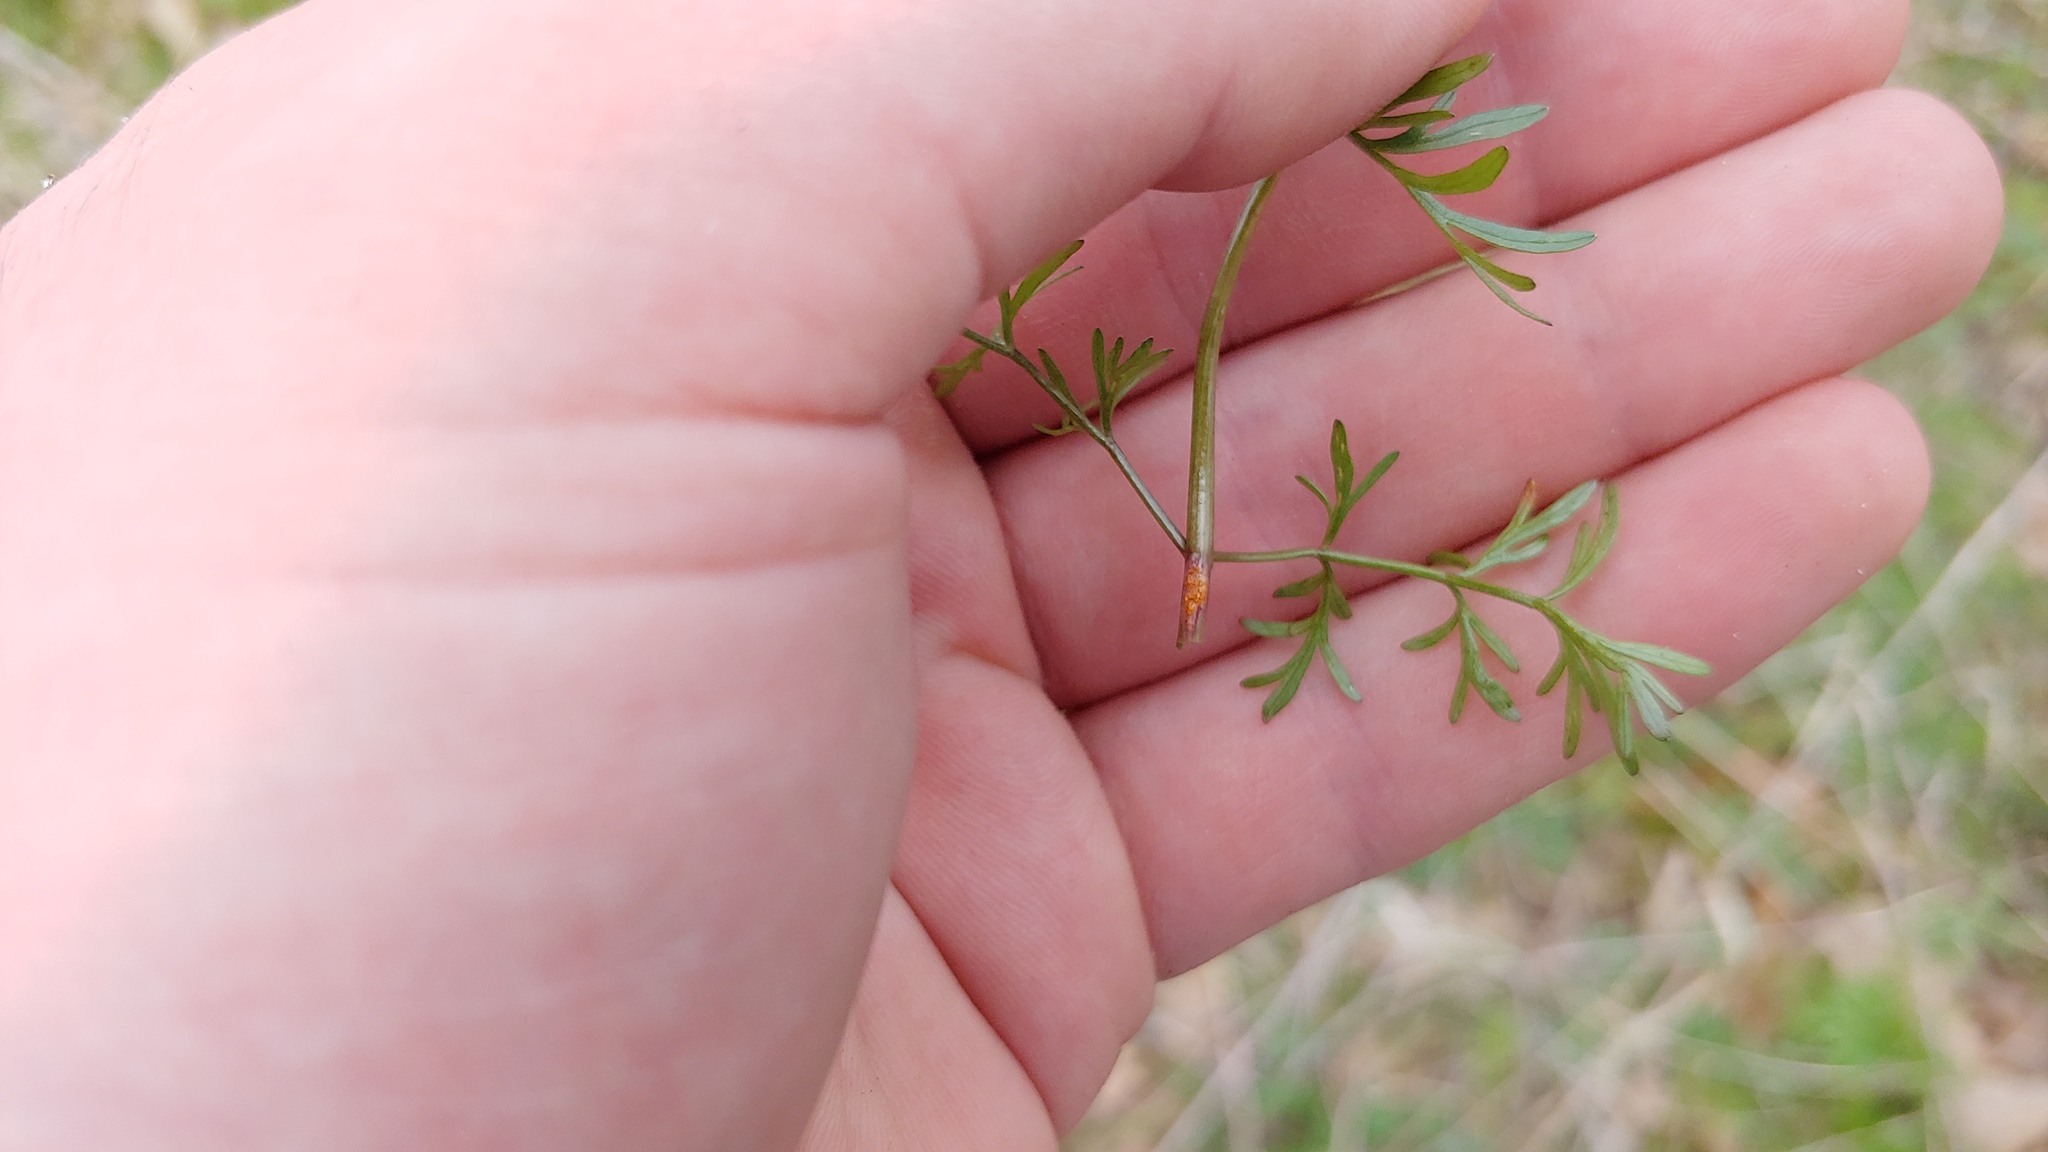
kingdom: Plantae
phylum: Tracheophyta
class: Magnoliopsida
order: Apiales
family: Apiaceae
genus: Perideridia
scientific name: Perideridia americana
